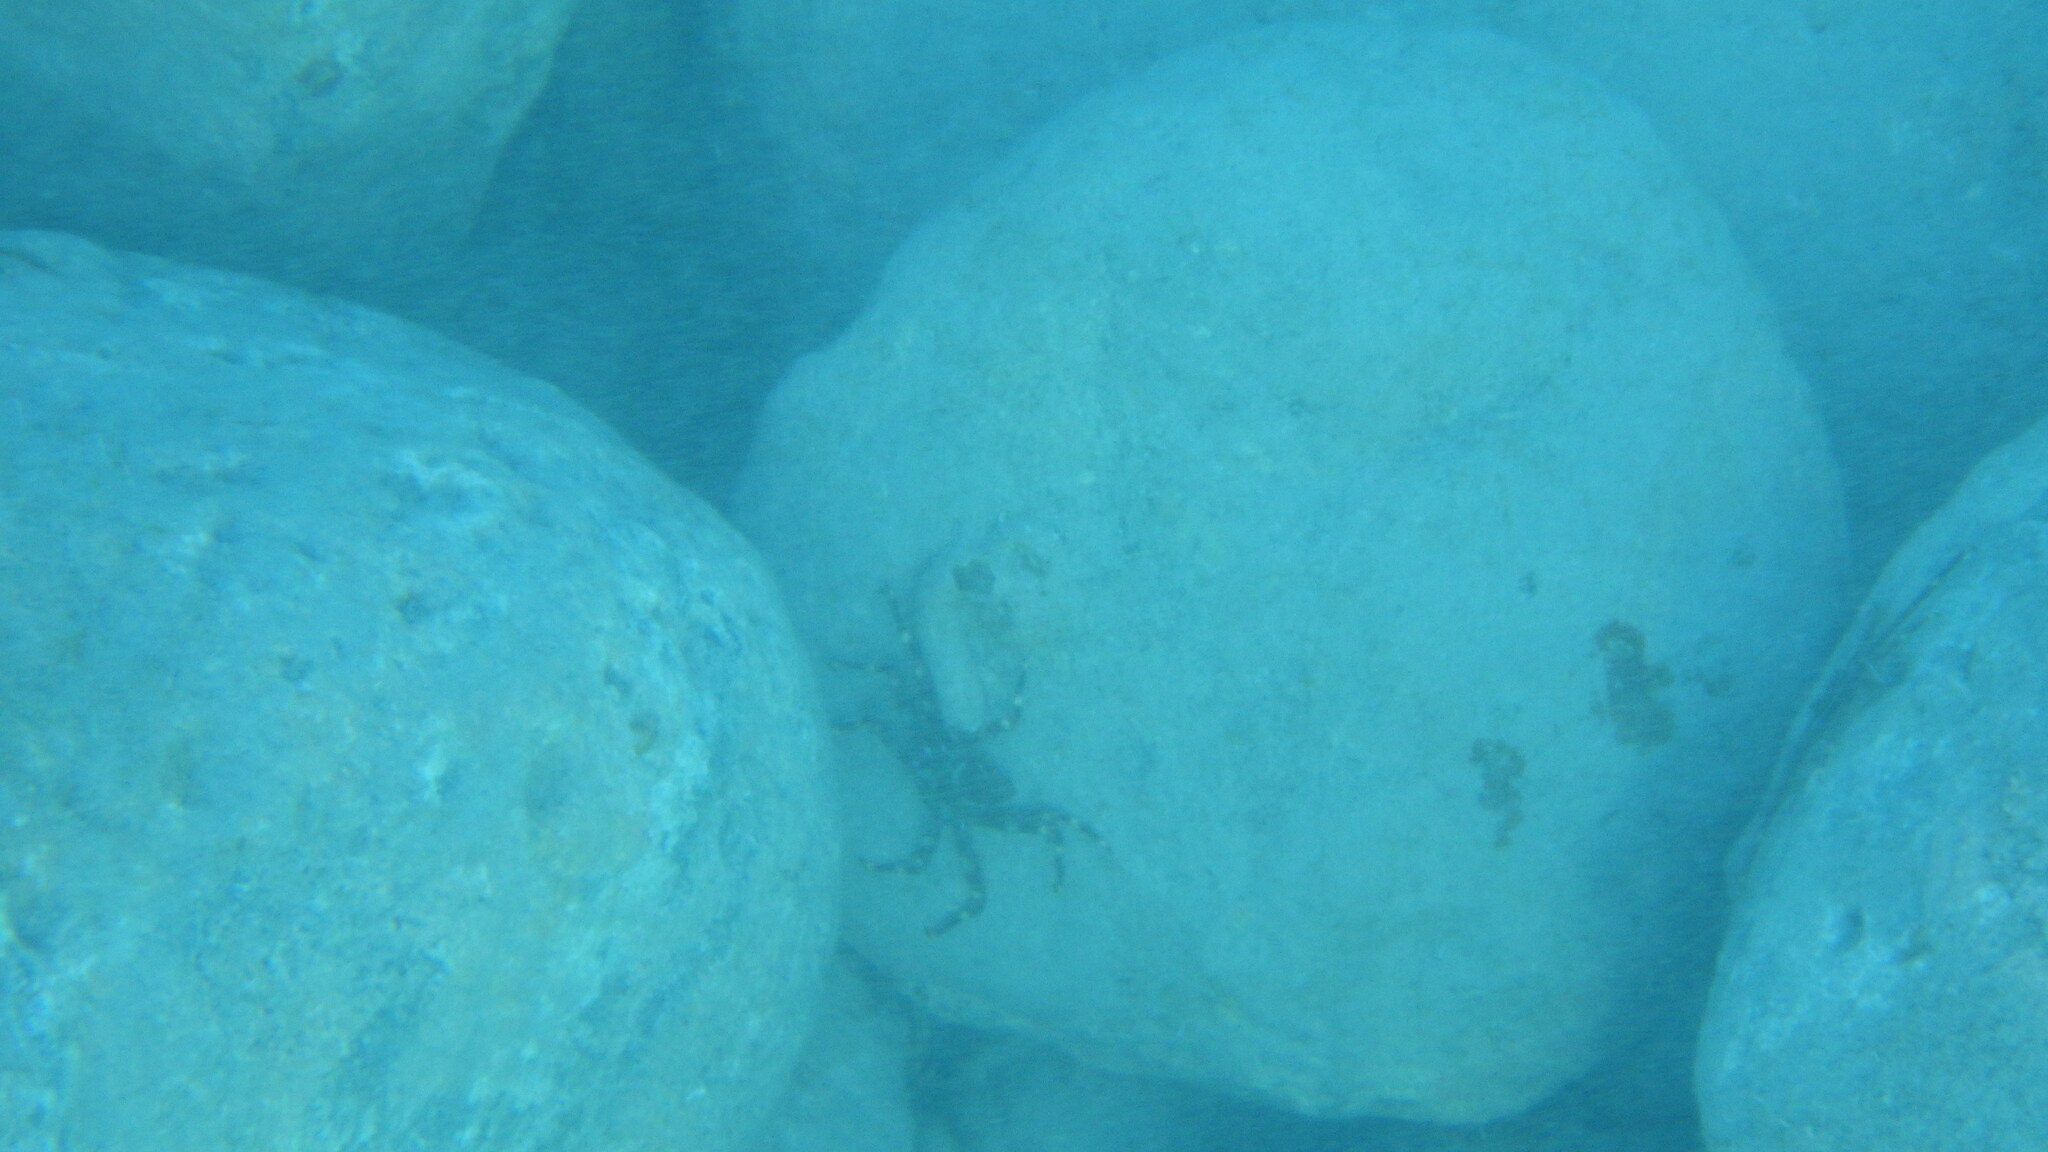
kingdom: Animalia
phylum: Arthropoda
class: Malacostraca
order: Decapoda
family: Percnidae
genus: Percnon
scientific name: Percnon gibbesi
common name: Nimble spray crab
